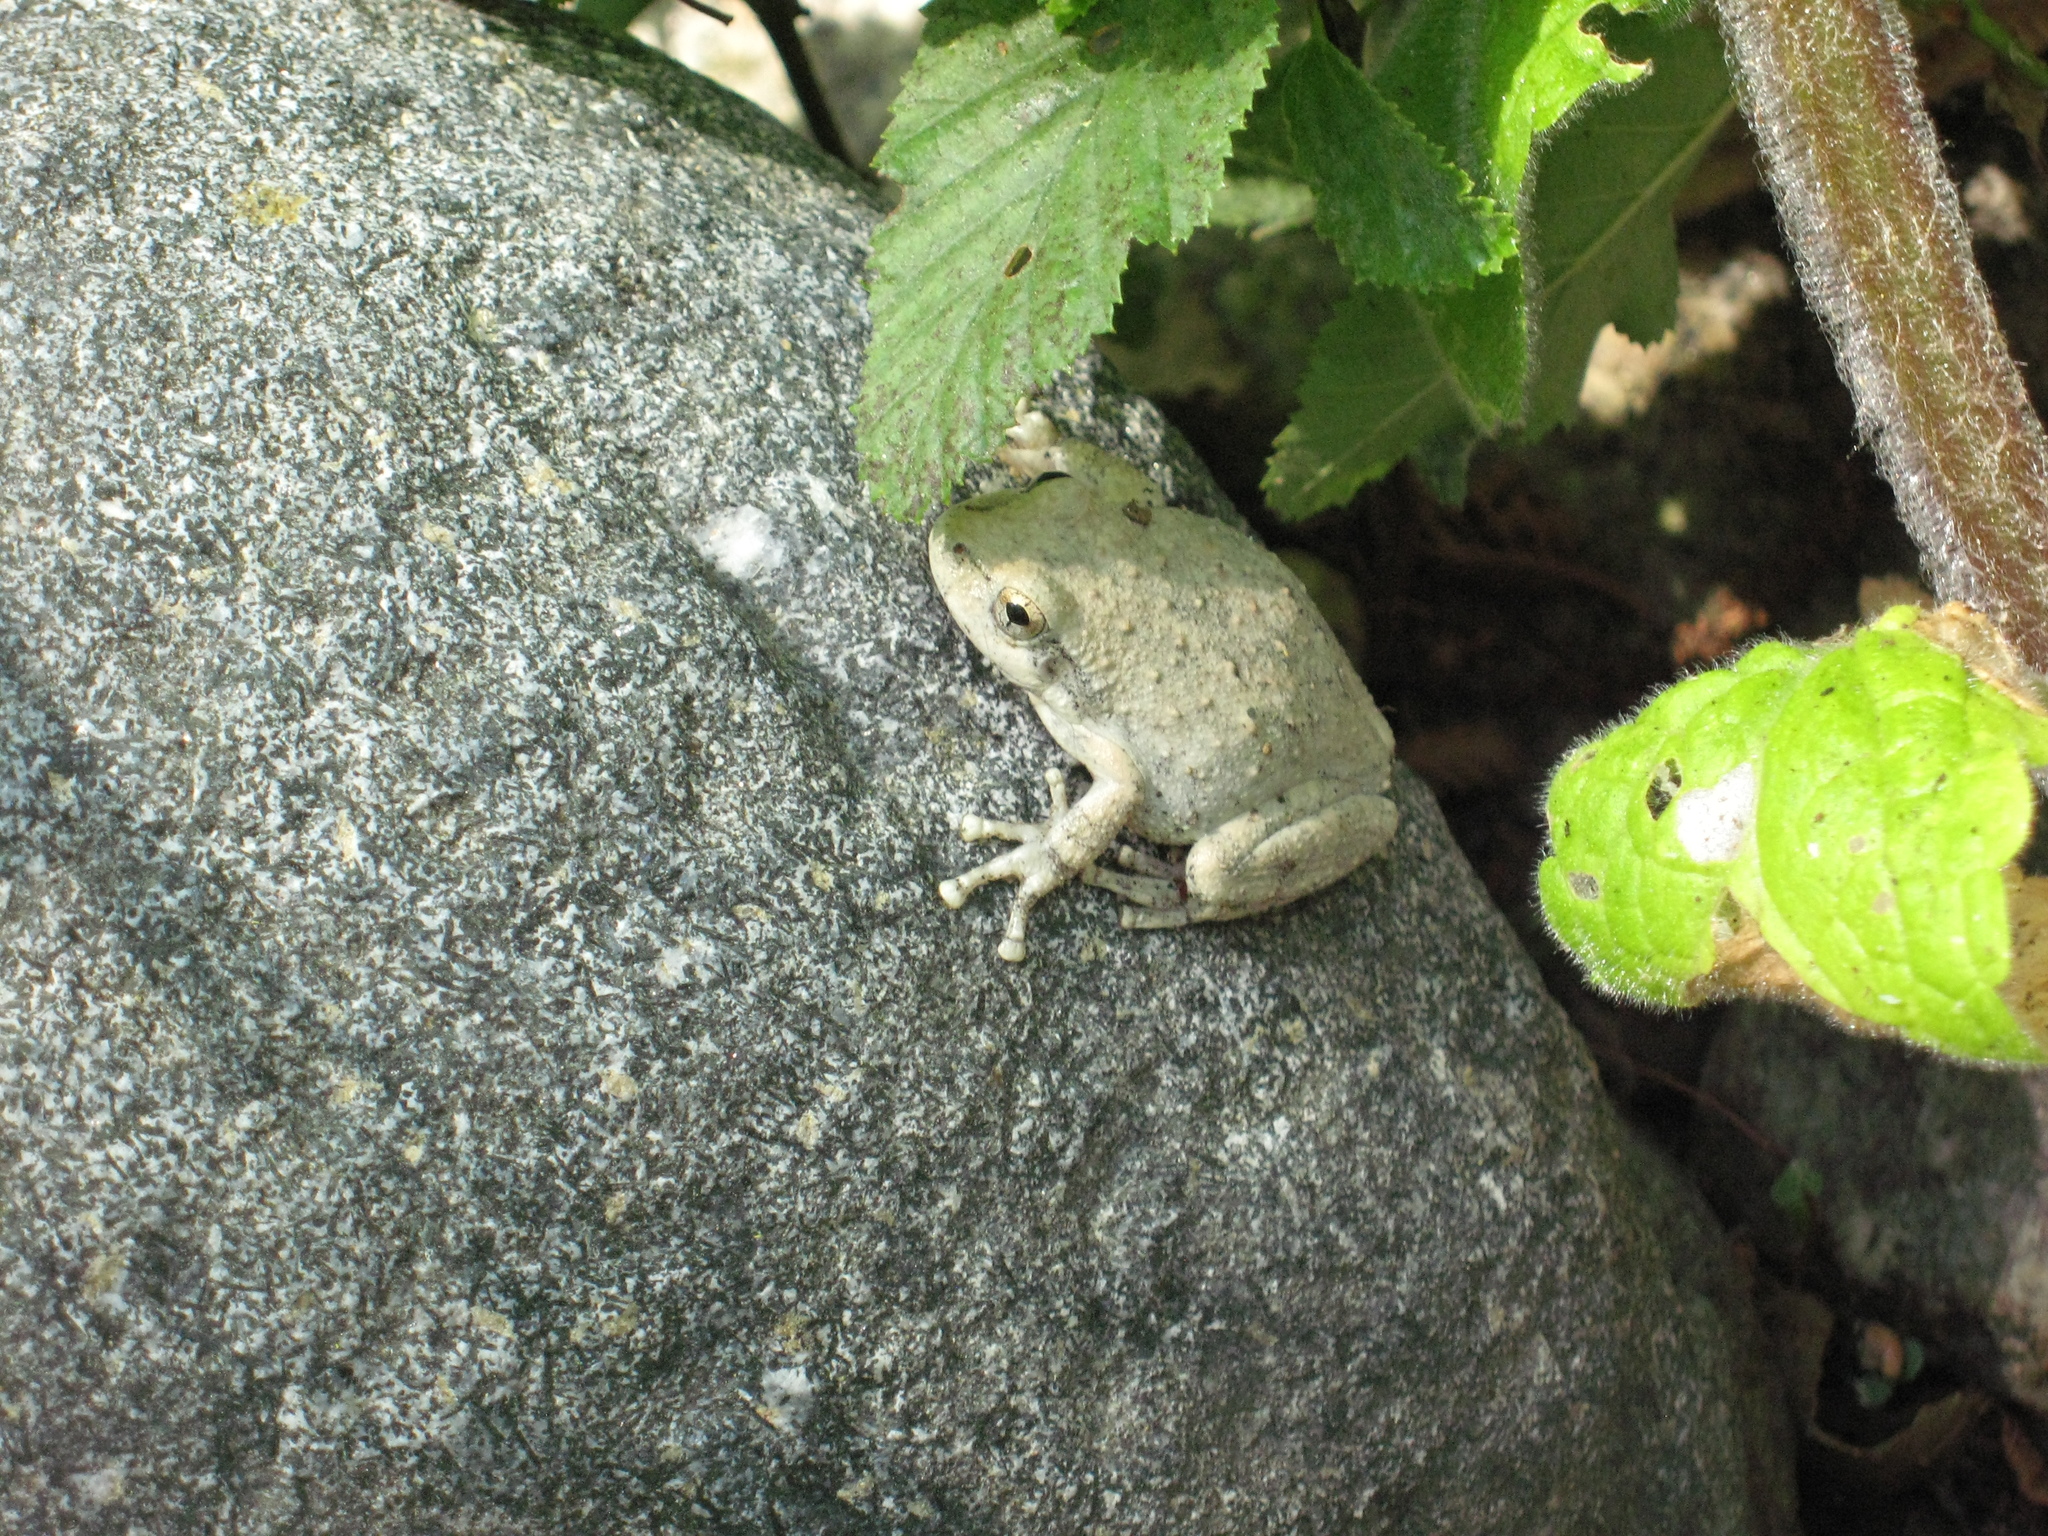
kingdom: Animalia
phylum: Chordata
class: Amphibia
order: Anura
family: Hylidae
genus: Pseudacris
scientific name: Pseudacris cadaverina
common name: California chorus frog
